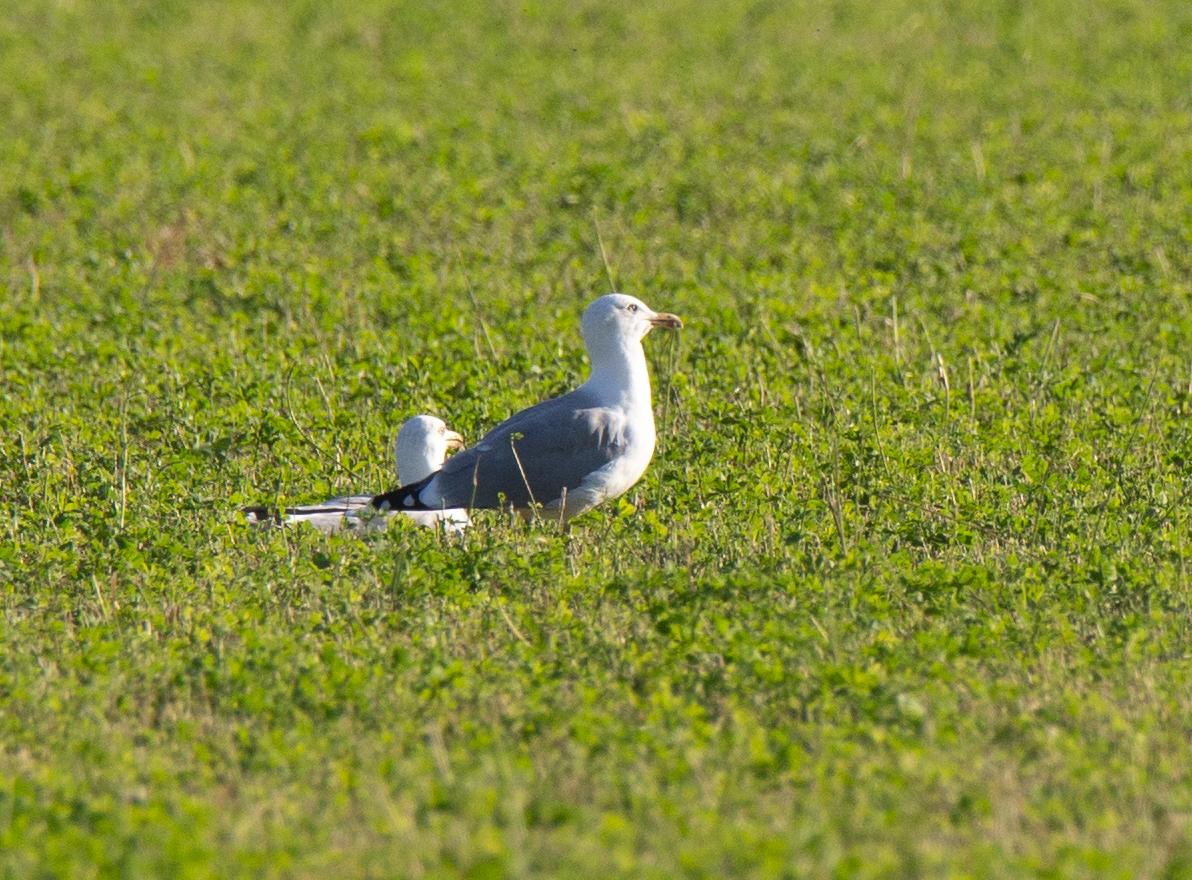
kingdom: Animalia
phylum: Chordata
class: Aves
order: Charadriiformes
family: Laridae
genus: Larus
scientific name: Larus michahellis
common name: Yellow-legged gull
